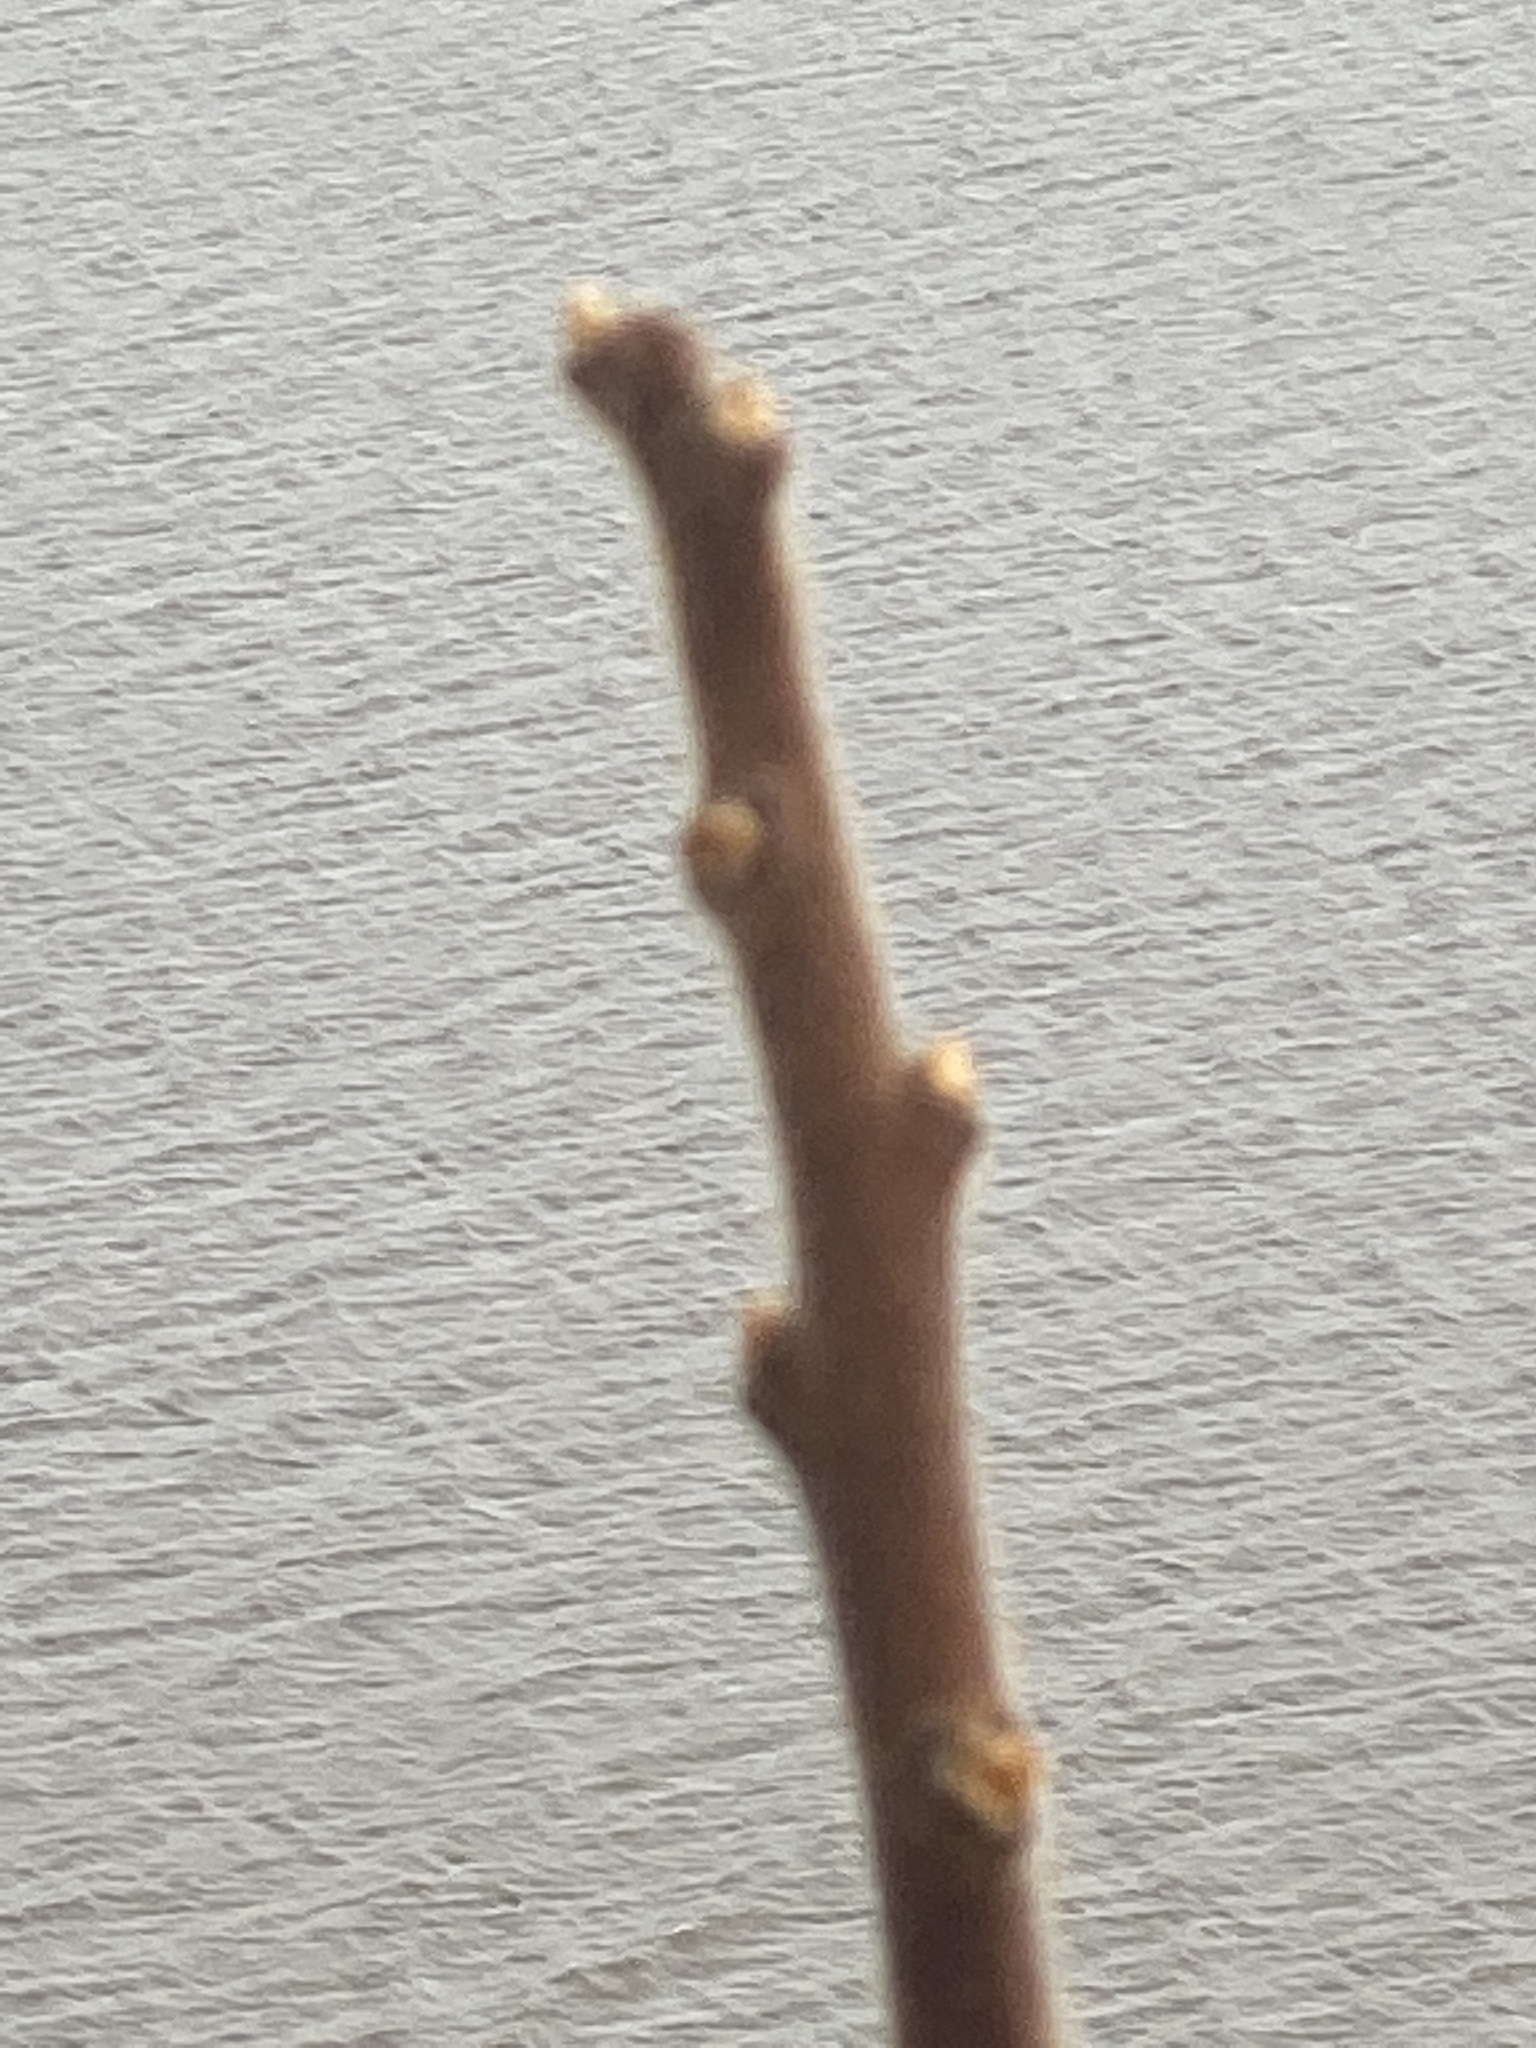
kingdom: Plantae
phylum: Tracheophyta
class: Magnoliopsida
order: Sapindales
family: Anacardiaceae
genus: Rhus
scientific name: Rhus typhina
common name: Staghorn sumac
